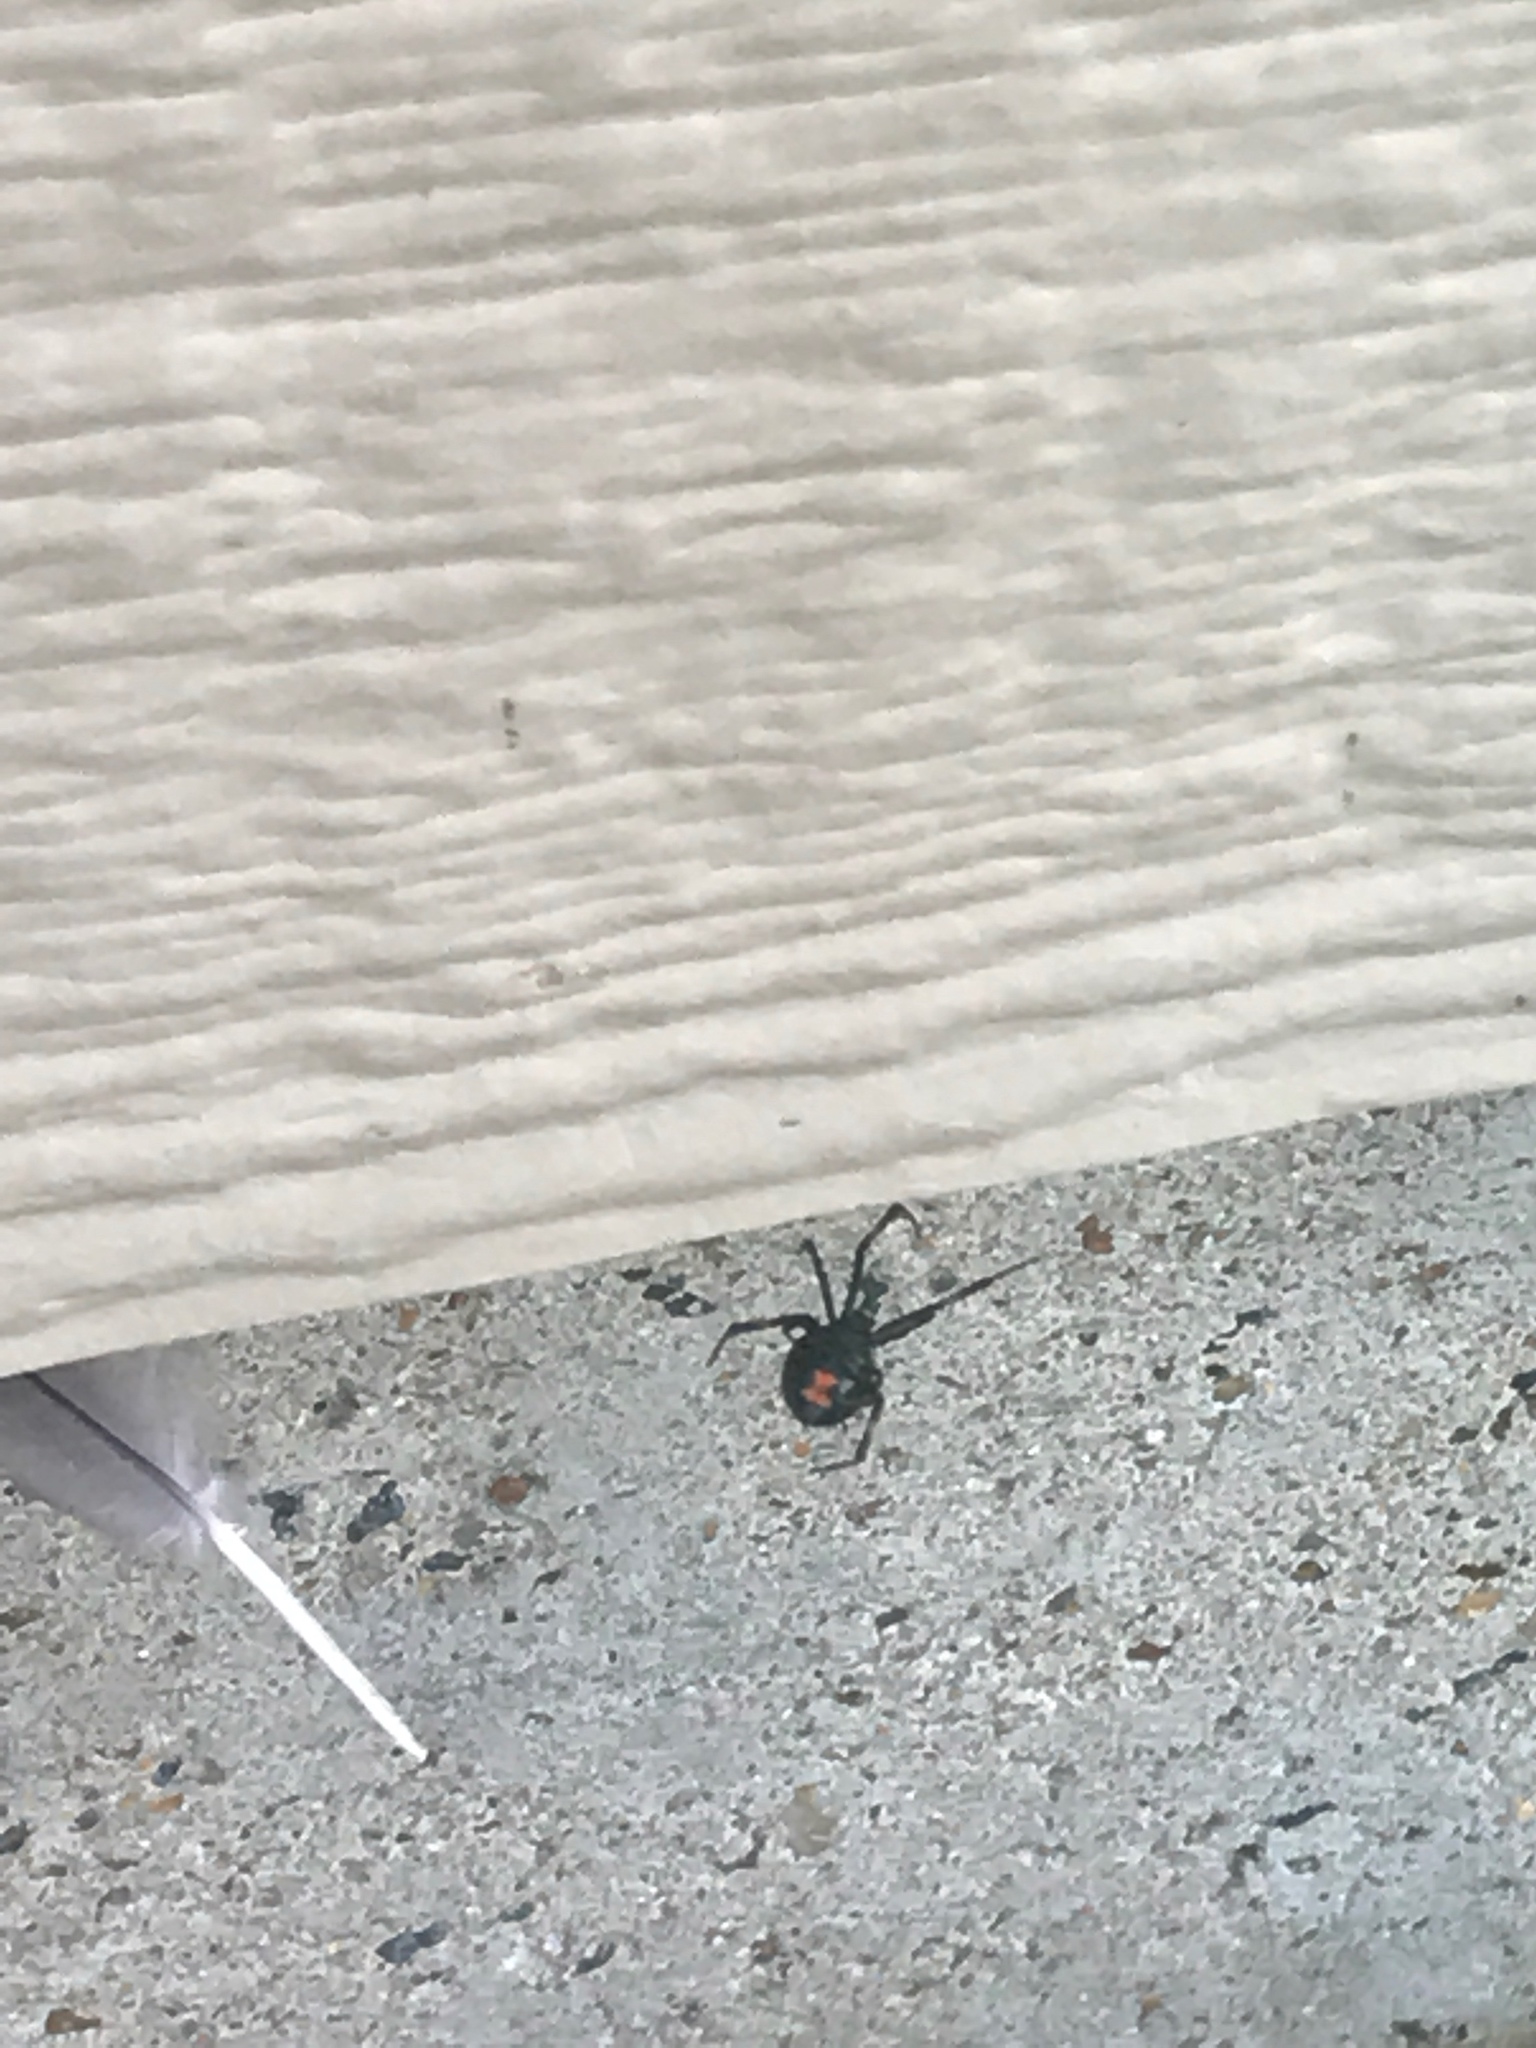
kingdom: Animalia
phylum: Arthropoda
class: Arachnida
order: Araneae
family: Theridiidae
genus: Latrodectus
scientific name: Latrodectus mactans
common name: Cobweb spiders
